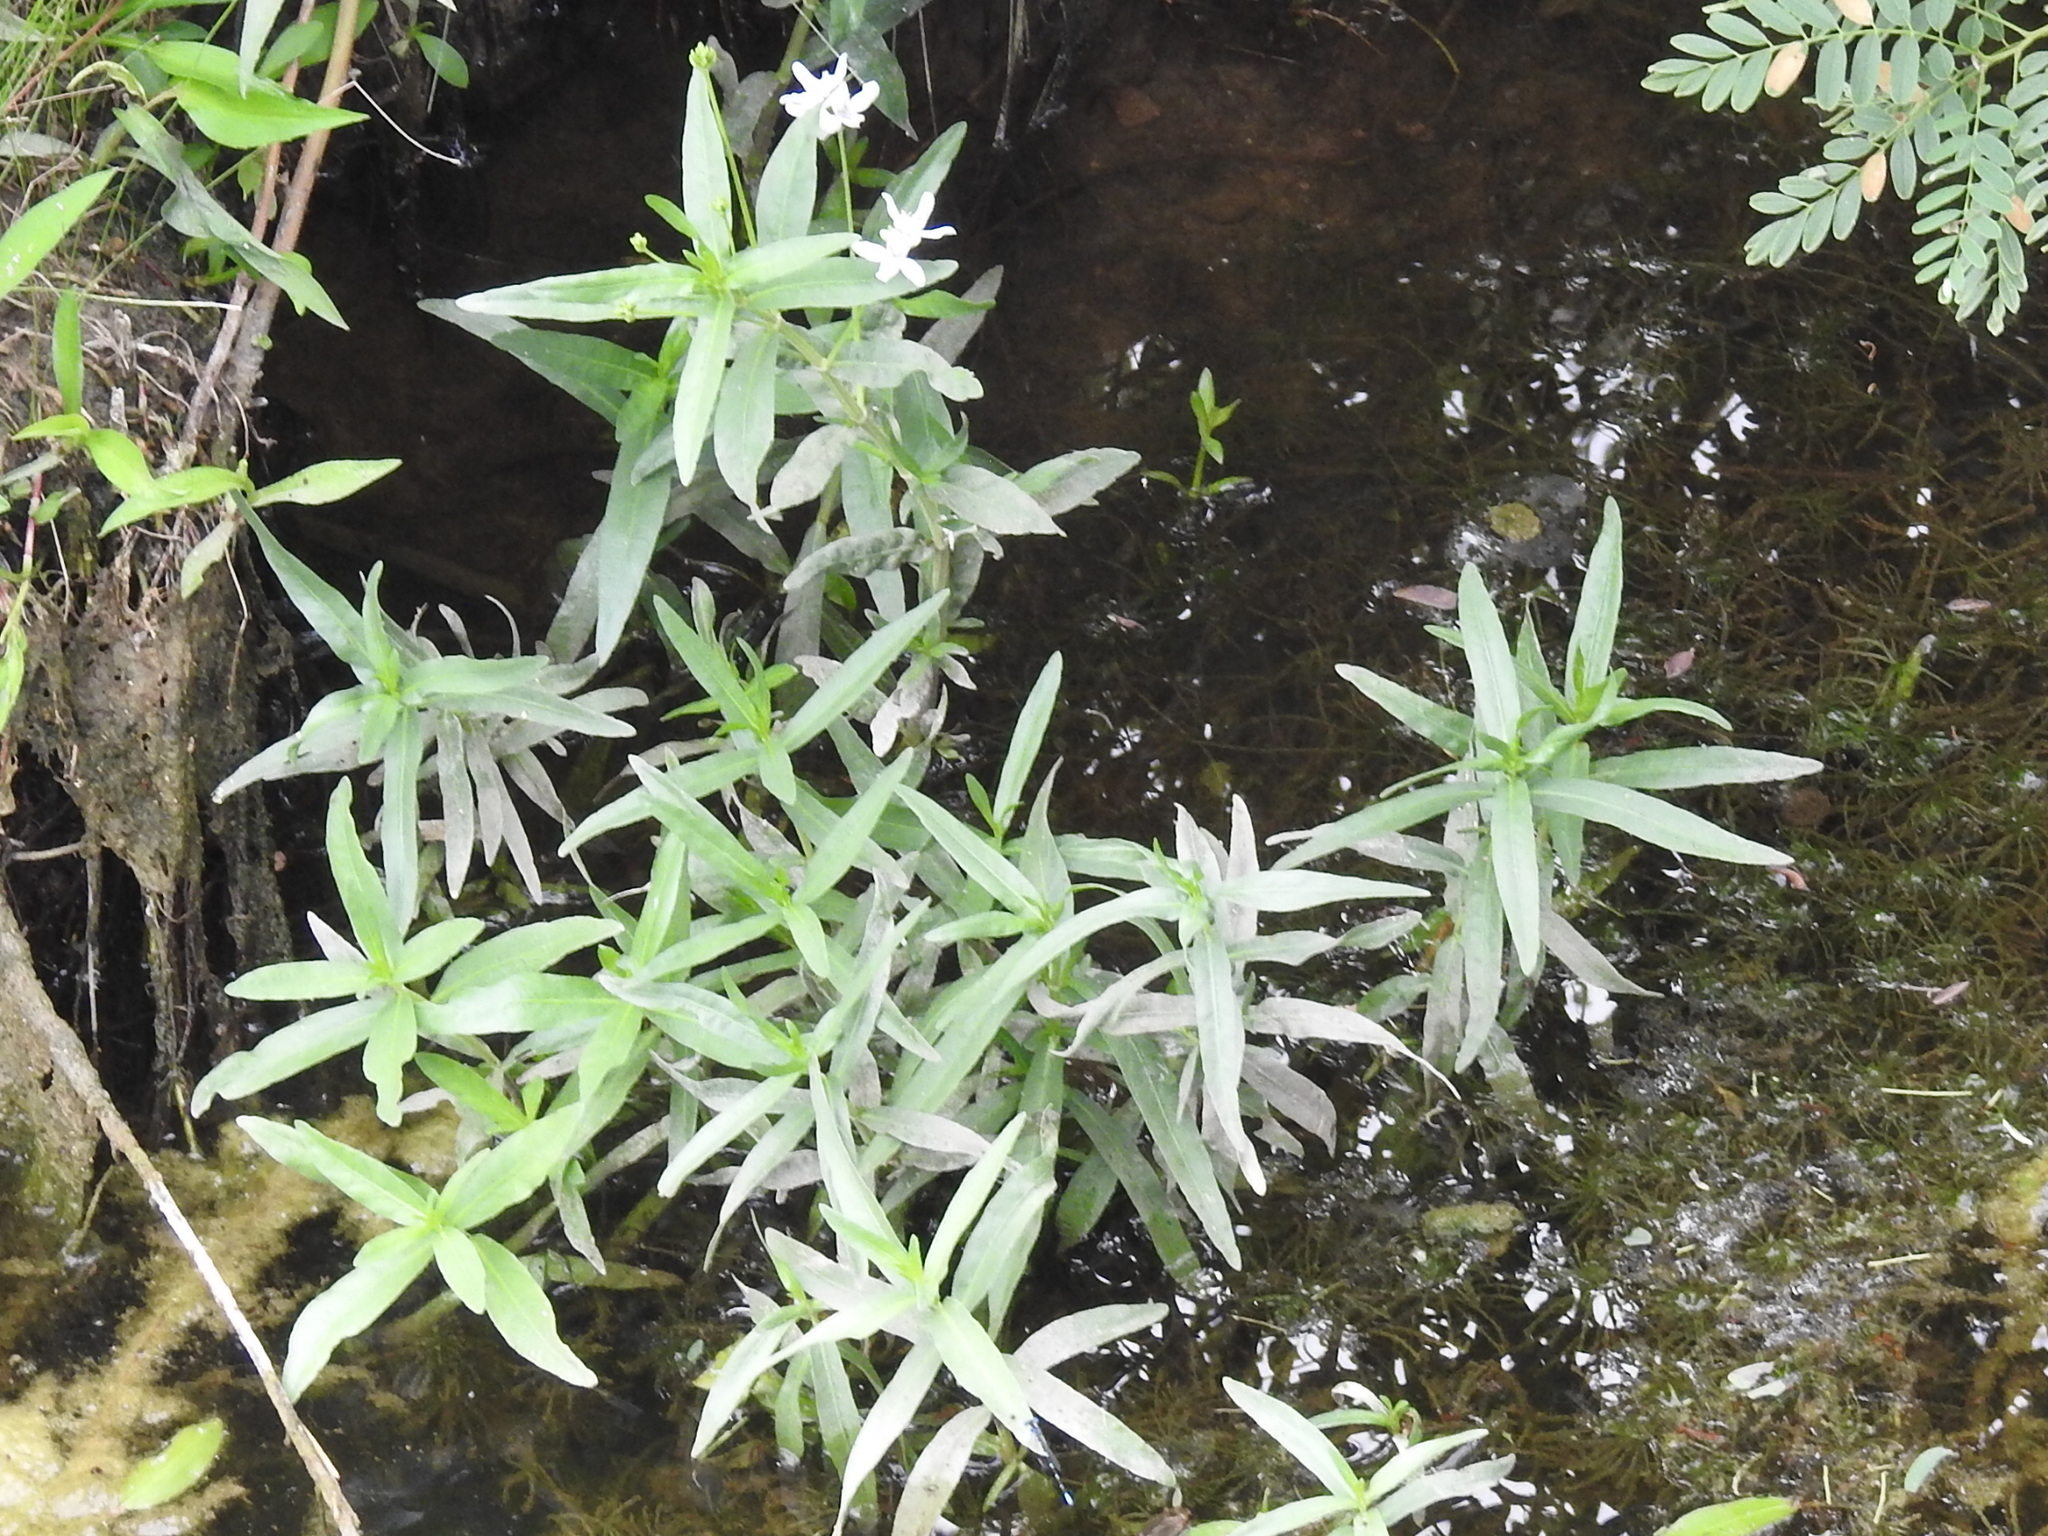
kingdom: Plantae
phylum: Tracheophyta
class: Magnoliopsida
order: Lamiales
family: Acanthaceae
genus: Dianthera
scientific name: Dianthera americana
